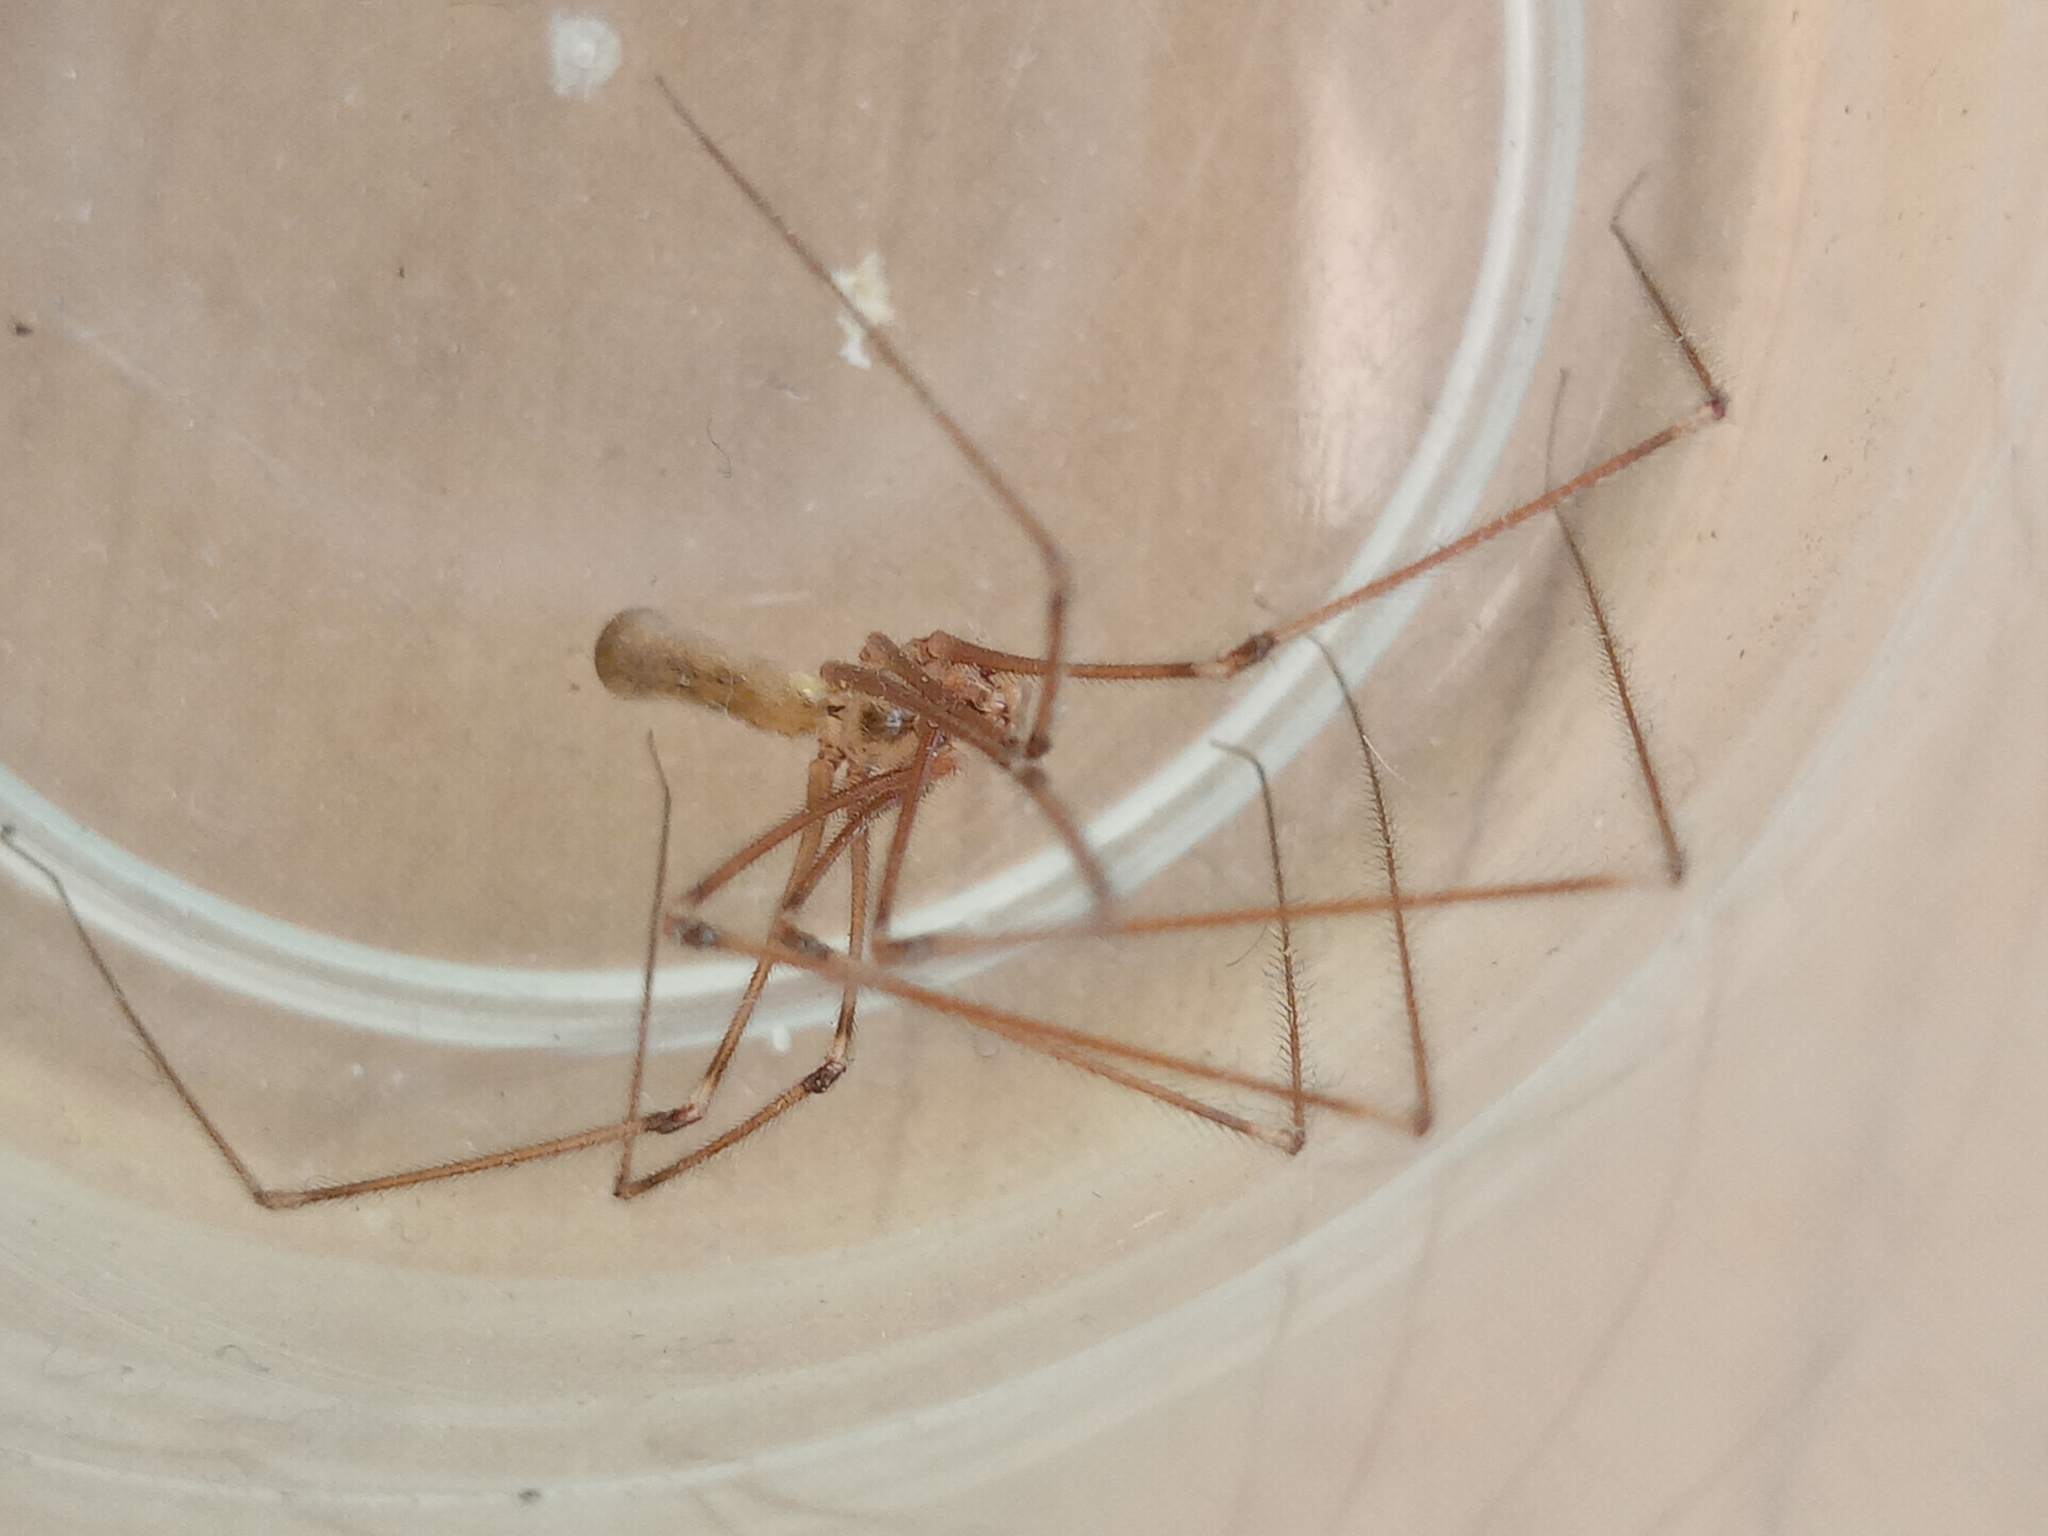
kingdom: Animalia
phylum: Arthropoda
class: Arachnida
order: Araneae
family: Pholcidae
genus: Pholcus
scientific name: Pholcus phalangioides
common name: Longbodied cellar spider
